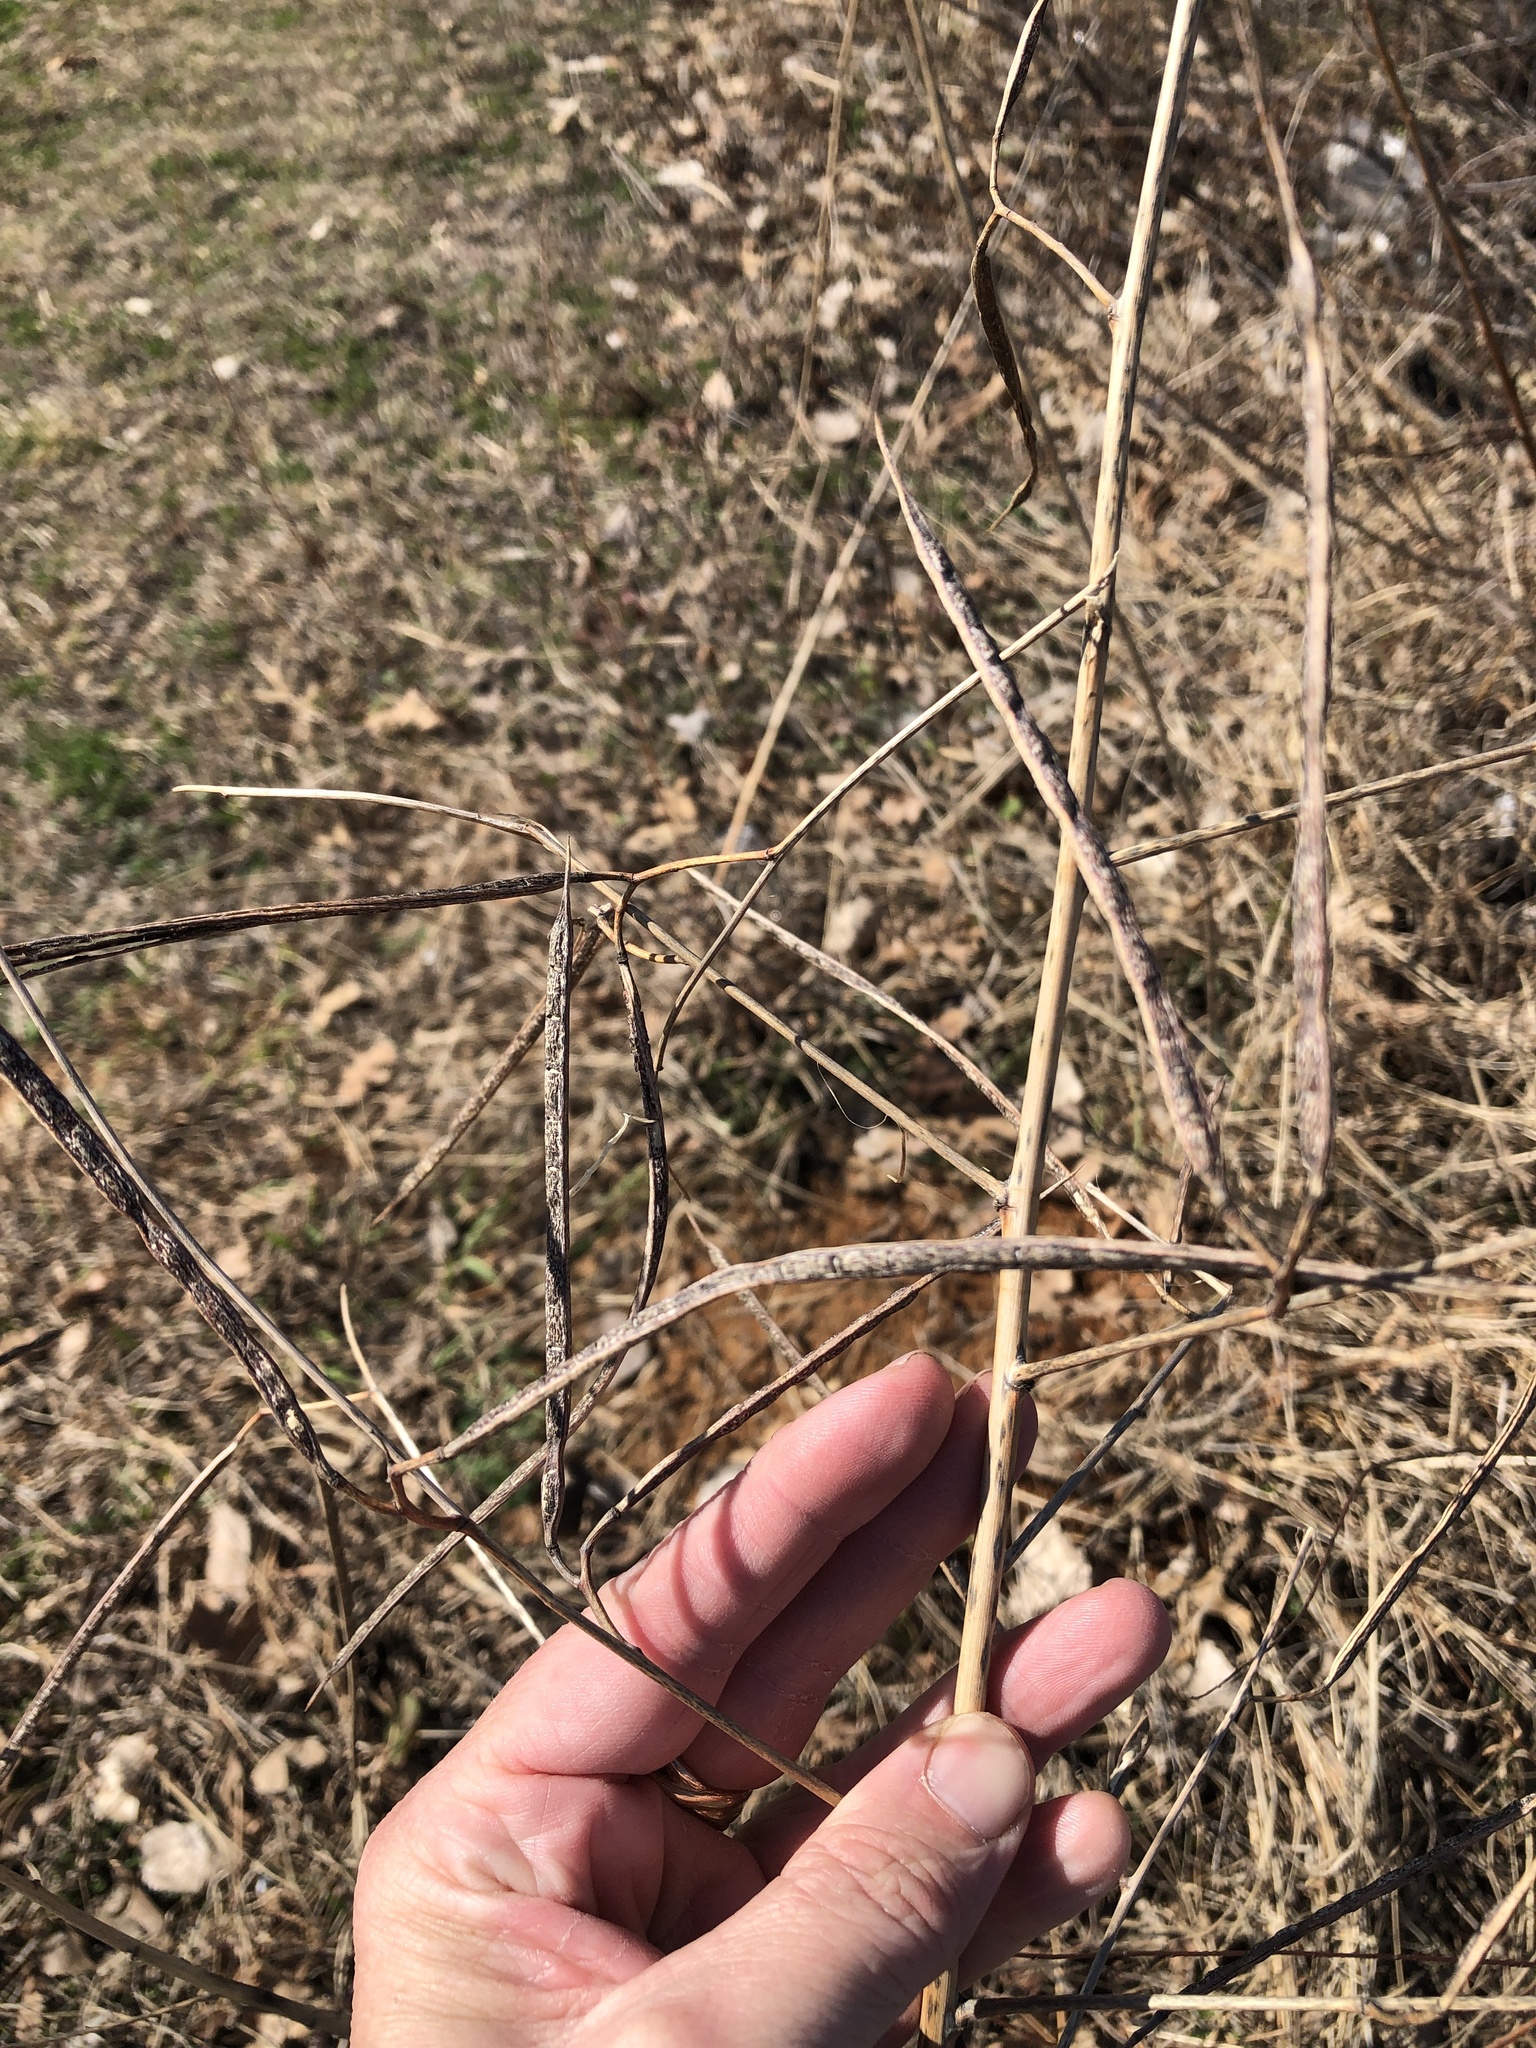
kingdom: Plantae
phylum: Tracheophyta
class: Magnoliopsida
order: Fabales
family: Fabaceae
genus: Sesbania
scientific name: Sesbania herbacea
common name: Bigpod sesbania
